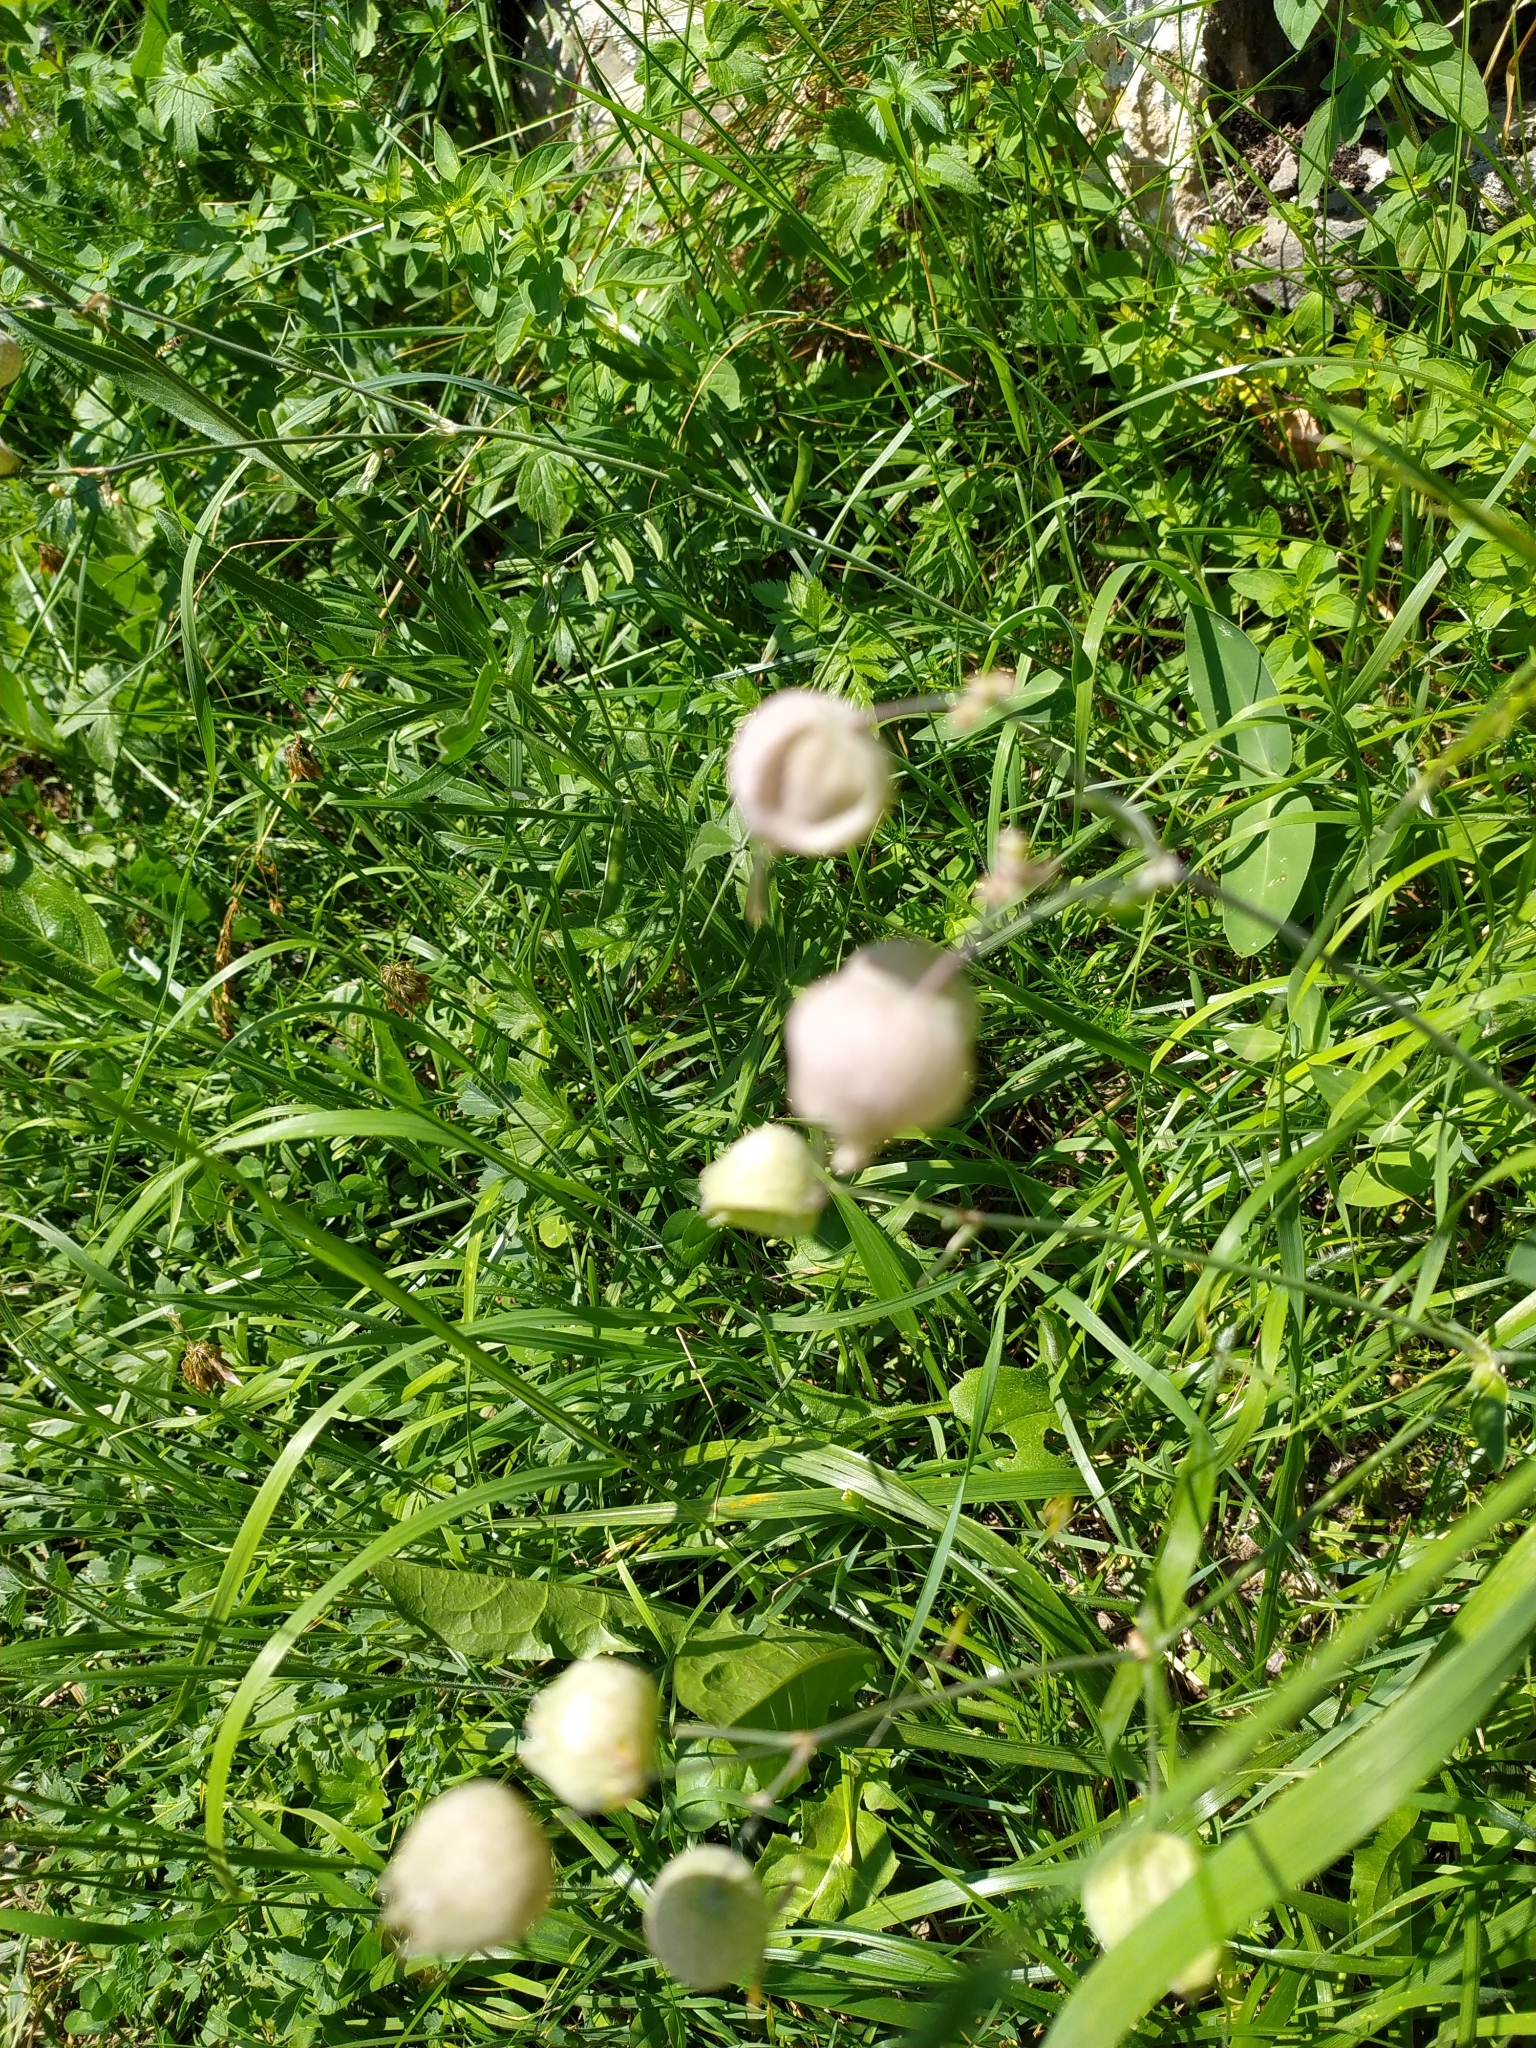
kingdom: Plantae
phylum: Tracheophyta
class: Magnoliopsida
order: Caryophyllales
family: Caryophyllaceae
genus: Silene
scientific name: Silene vulgaris
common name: Bladder campion
